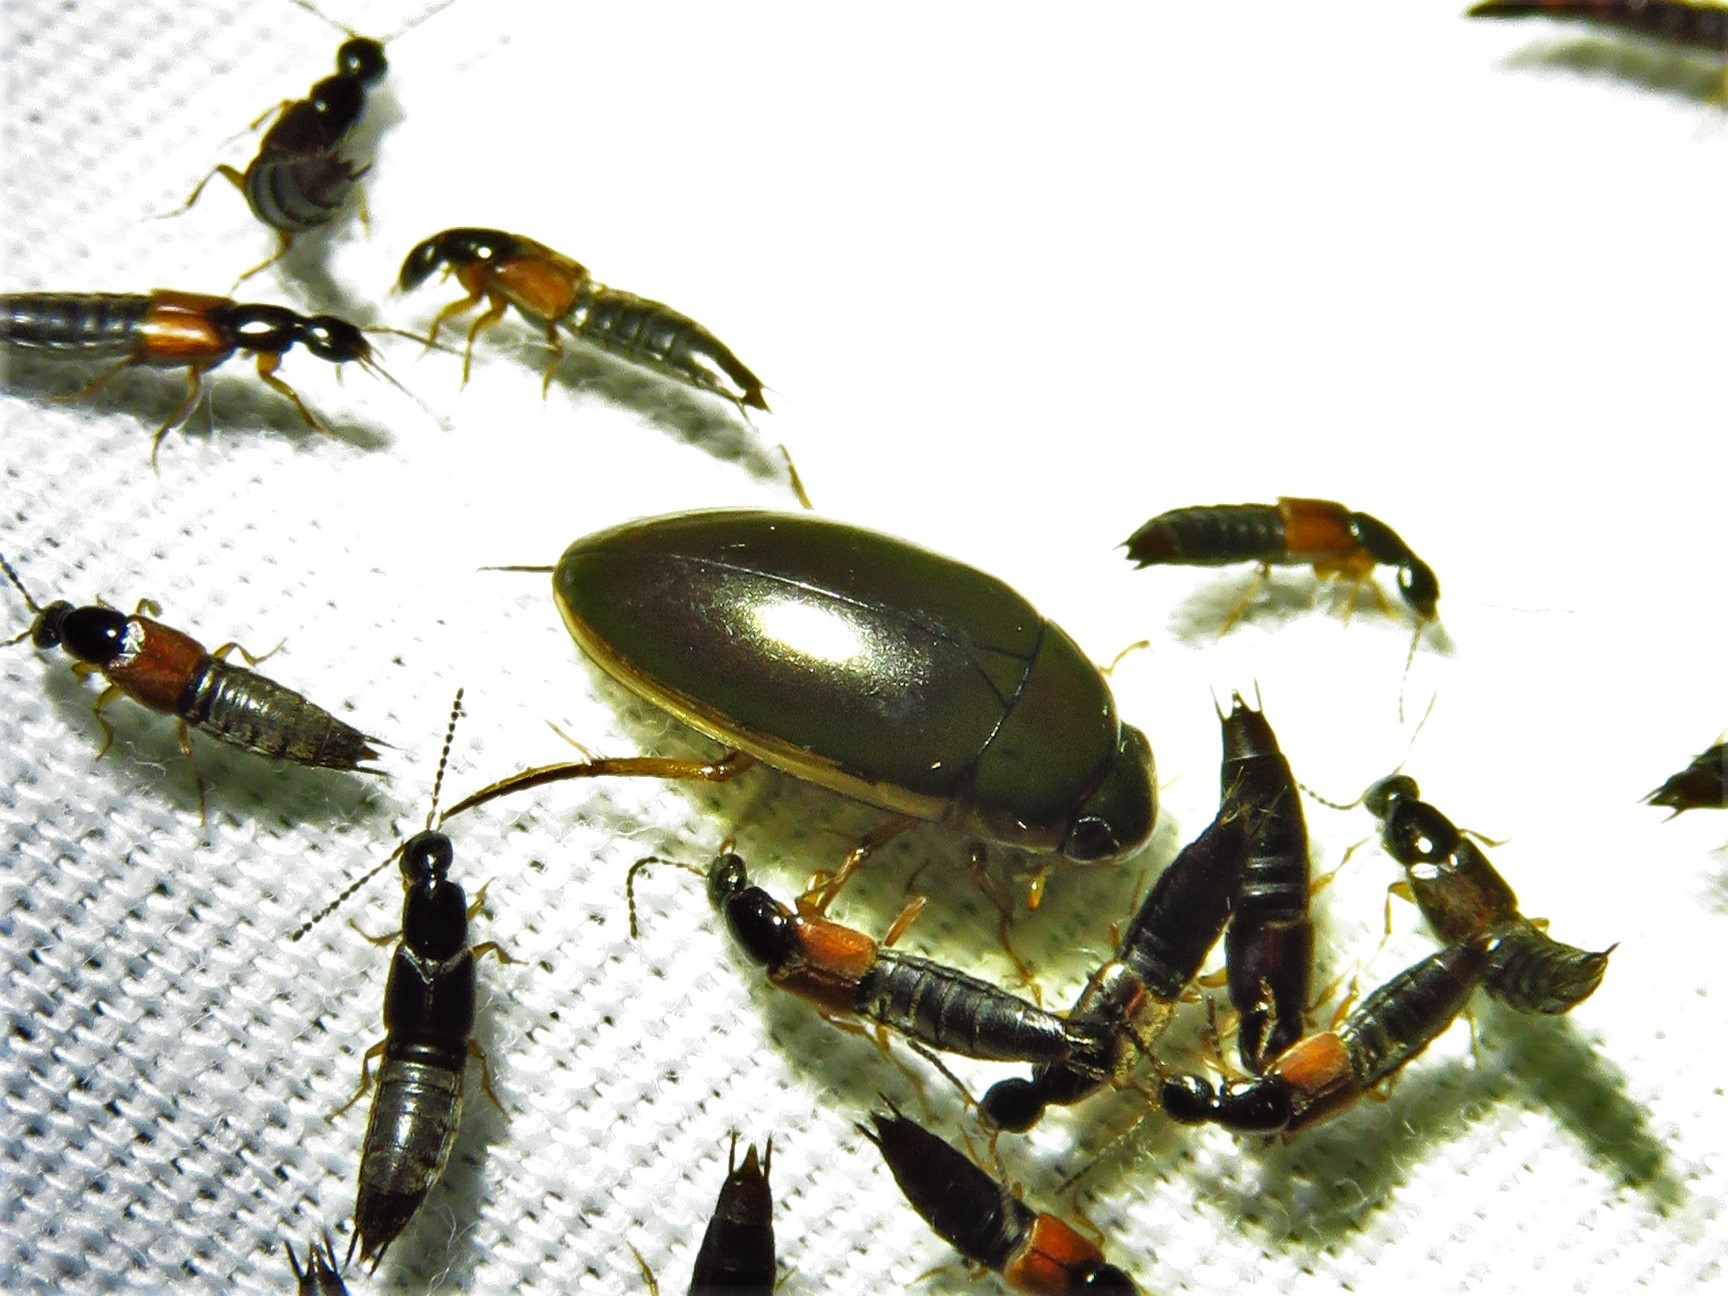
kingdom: Animalia
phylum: Arthropoda
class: Insecta
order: Coleoptera
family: Hydrophilidae
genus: Tropisternus
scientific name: Tropisternus lateralis
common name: Lateral-banded water scavenger beetle
